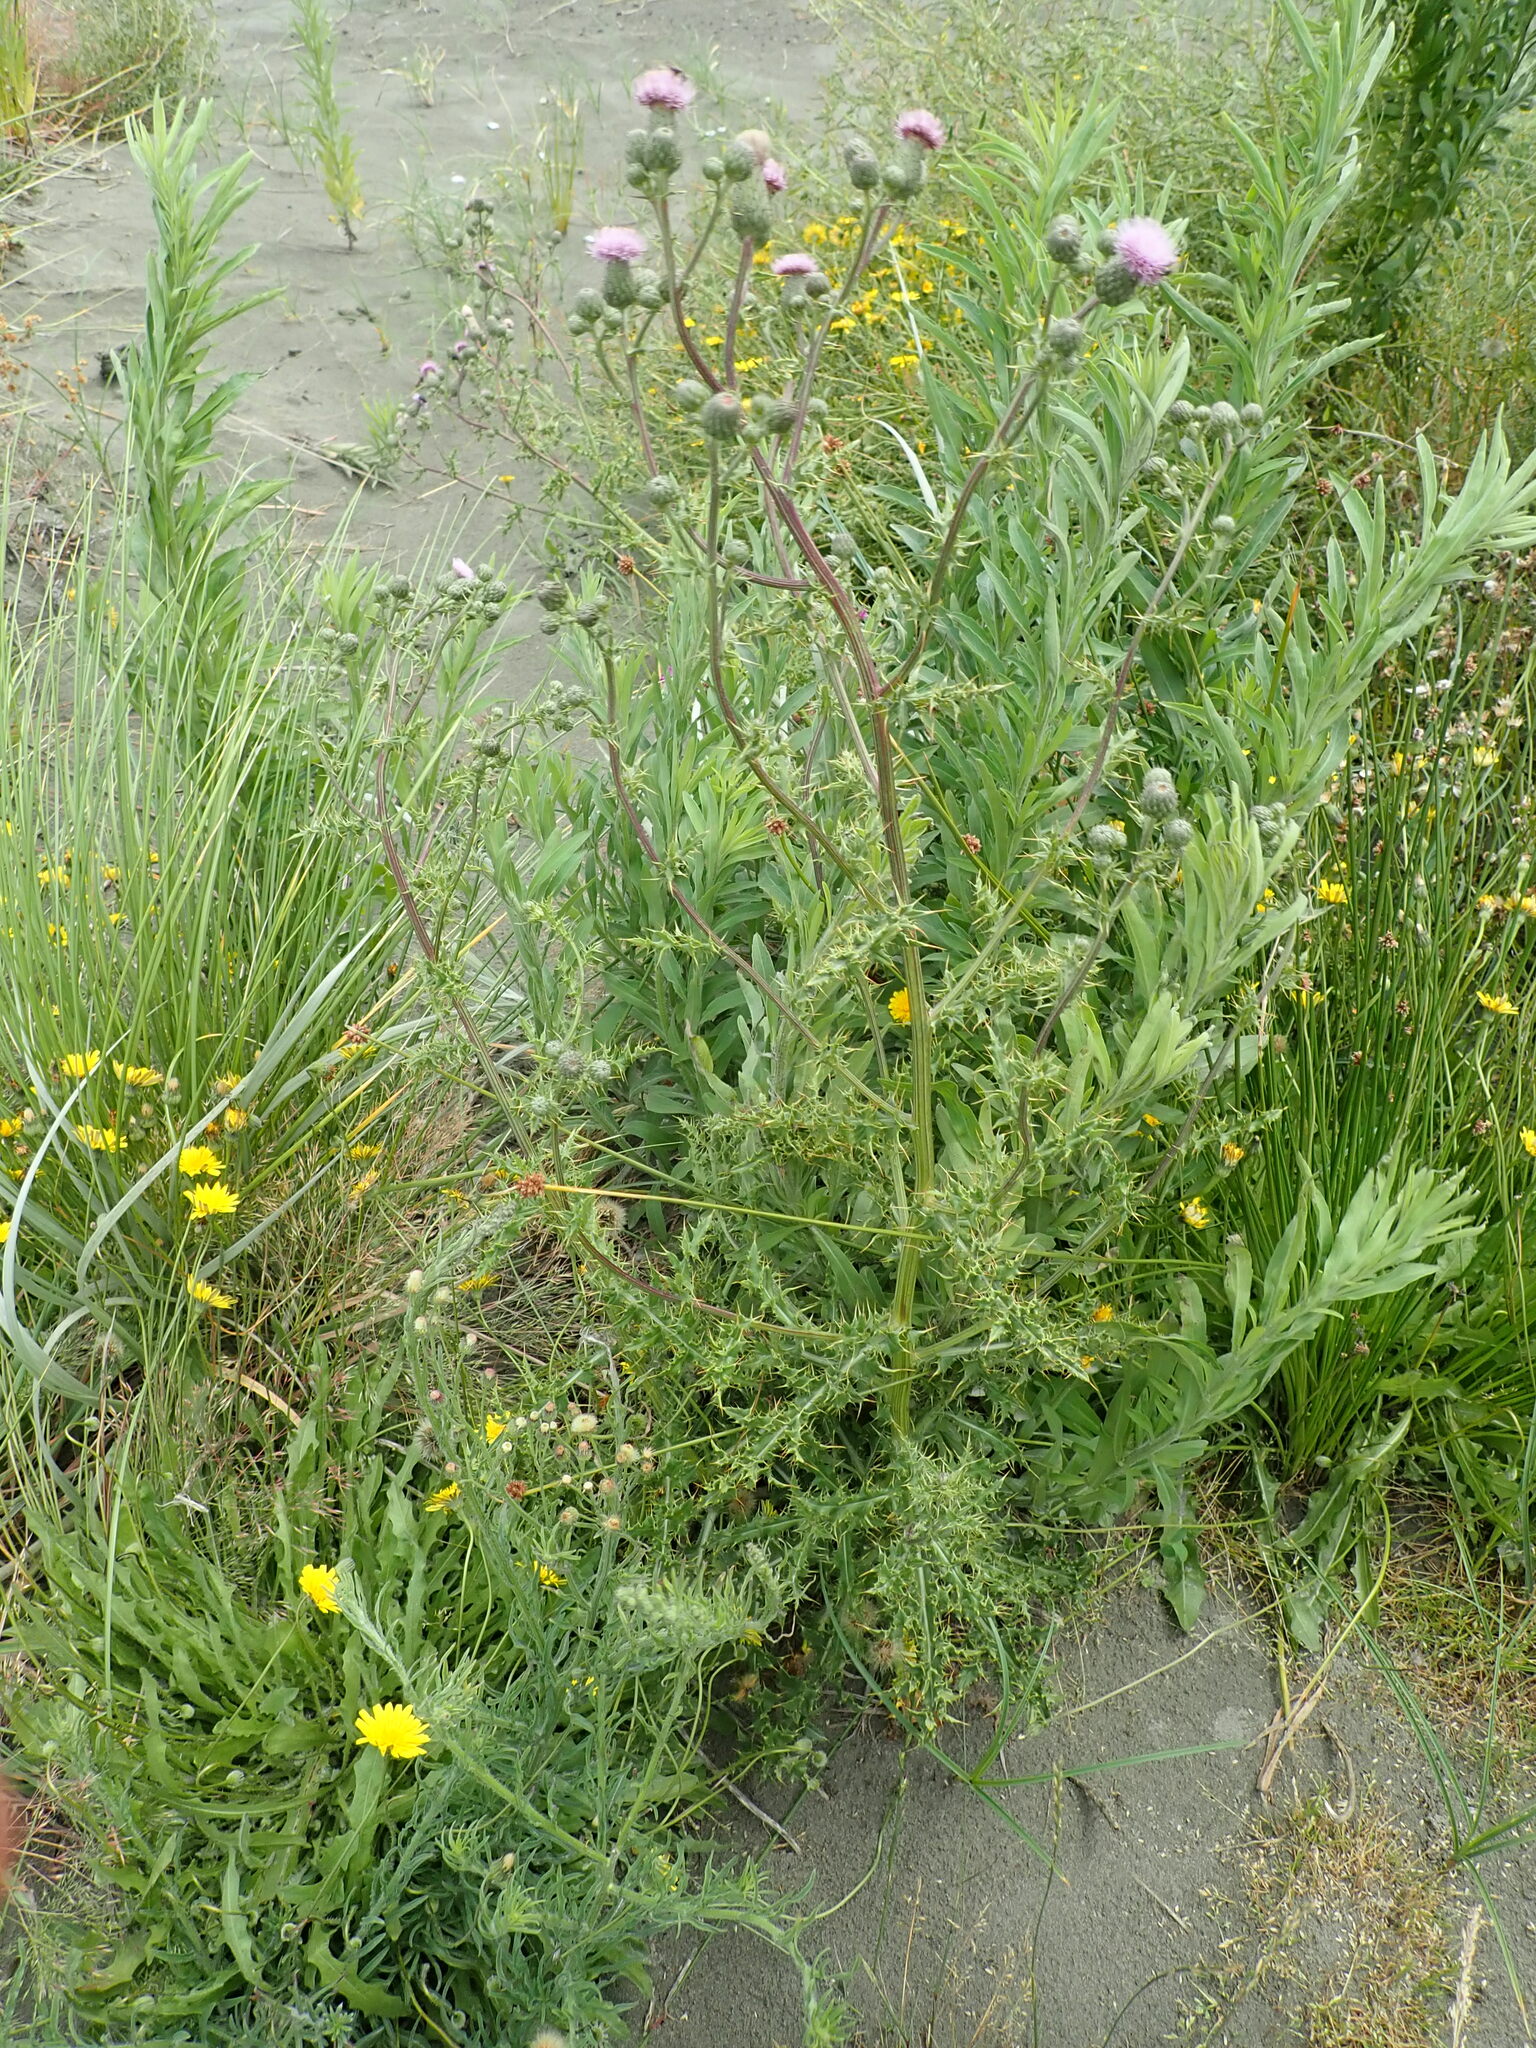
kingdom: Plantae
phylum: Tracheophyta
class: Magnoliopsida
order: Asterales
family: Asteraceae
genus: Cirsium
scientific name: Cirsium arvense
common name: Creeping thistle
